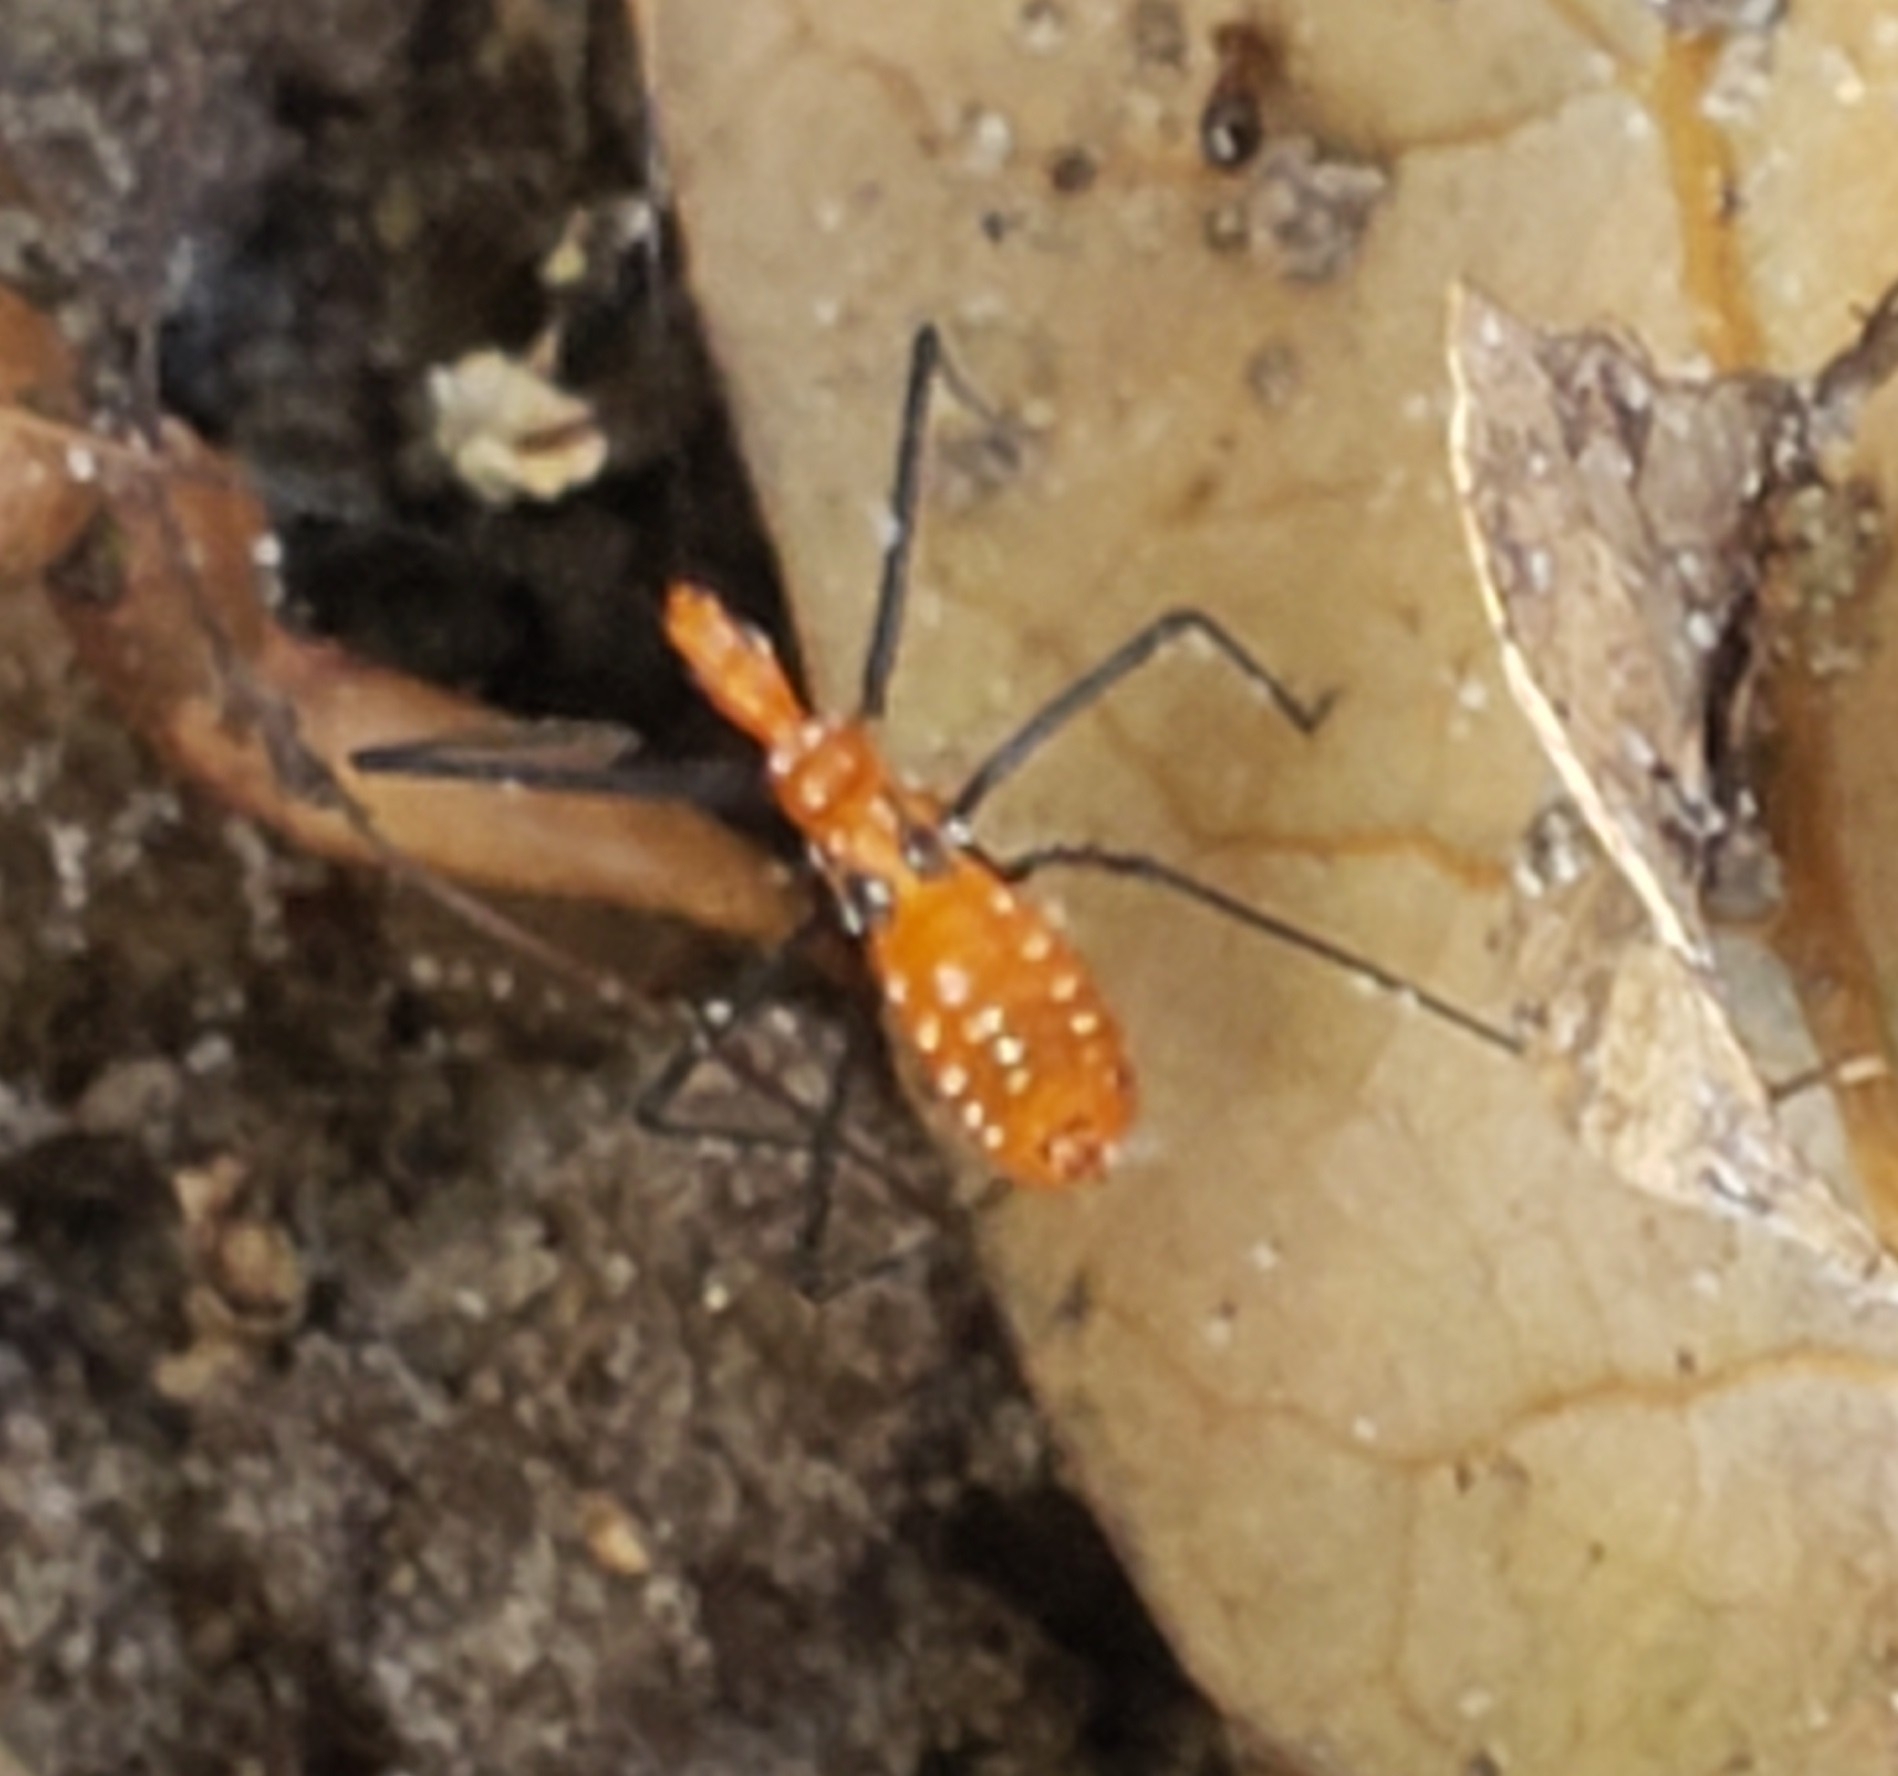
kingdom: Animalia
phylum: Arthropoda
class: Insecta
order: Hemiptera
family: Reduviidae
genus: Zelus
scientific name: Zelus longipes
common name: Milkweed assassin bug
